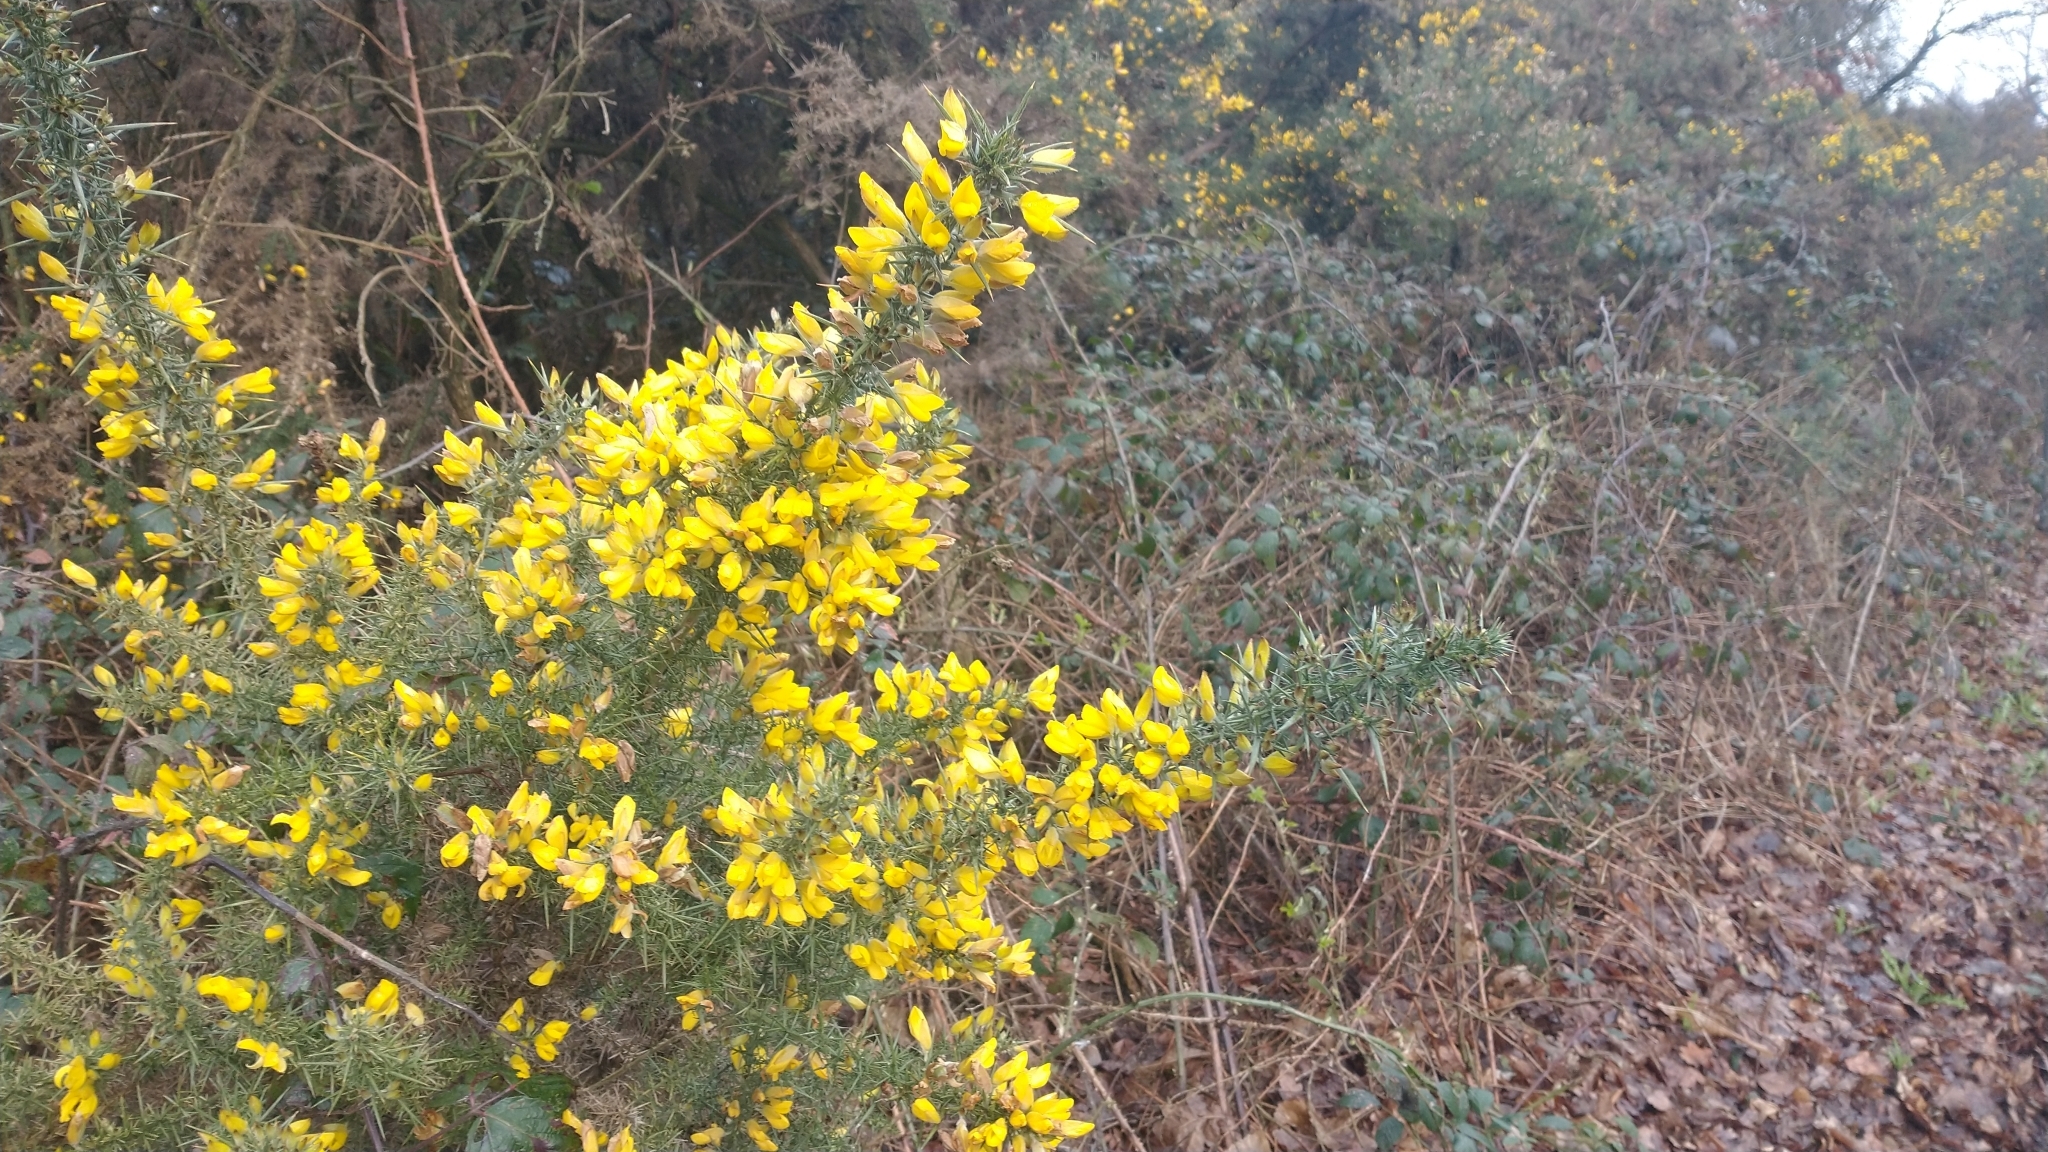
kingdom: Plantae
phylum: Tracheophyta
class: Magnoliopsida
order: Fabales
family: Fabaceae
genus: Ulex
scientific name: Ulex europaeus
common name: Common gorse
